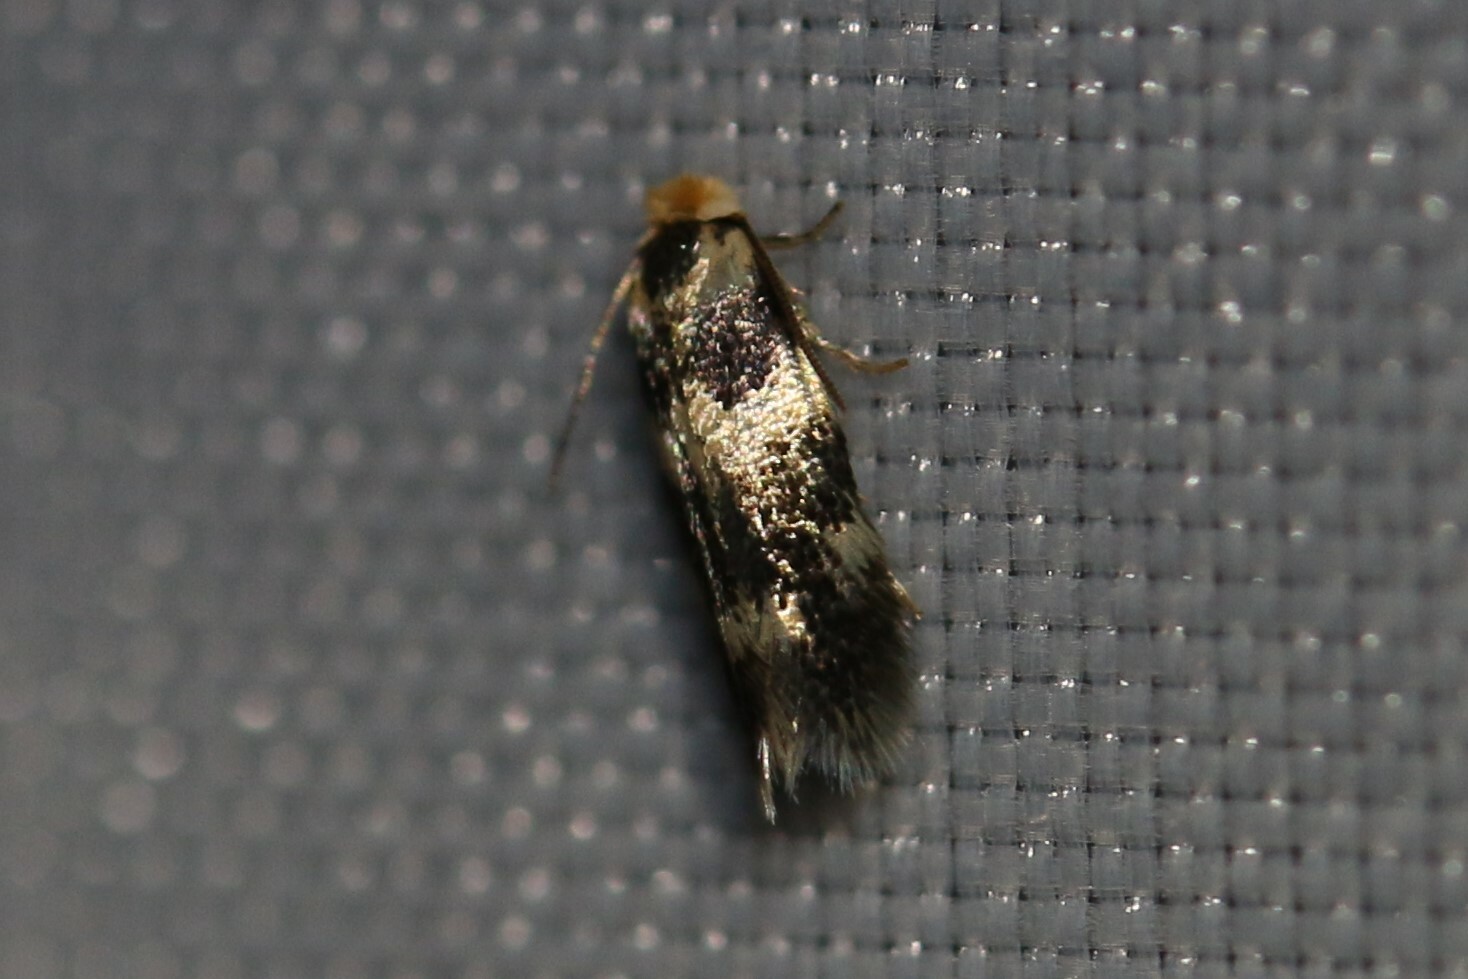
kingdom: Animalia
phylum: Arthropoda
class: Insecta
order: Lepidoptera
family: Nepticulidae
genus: Etainia
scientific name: Etainia sericopeza
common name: Leafminer
